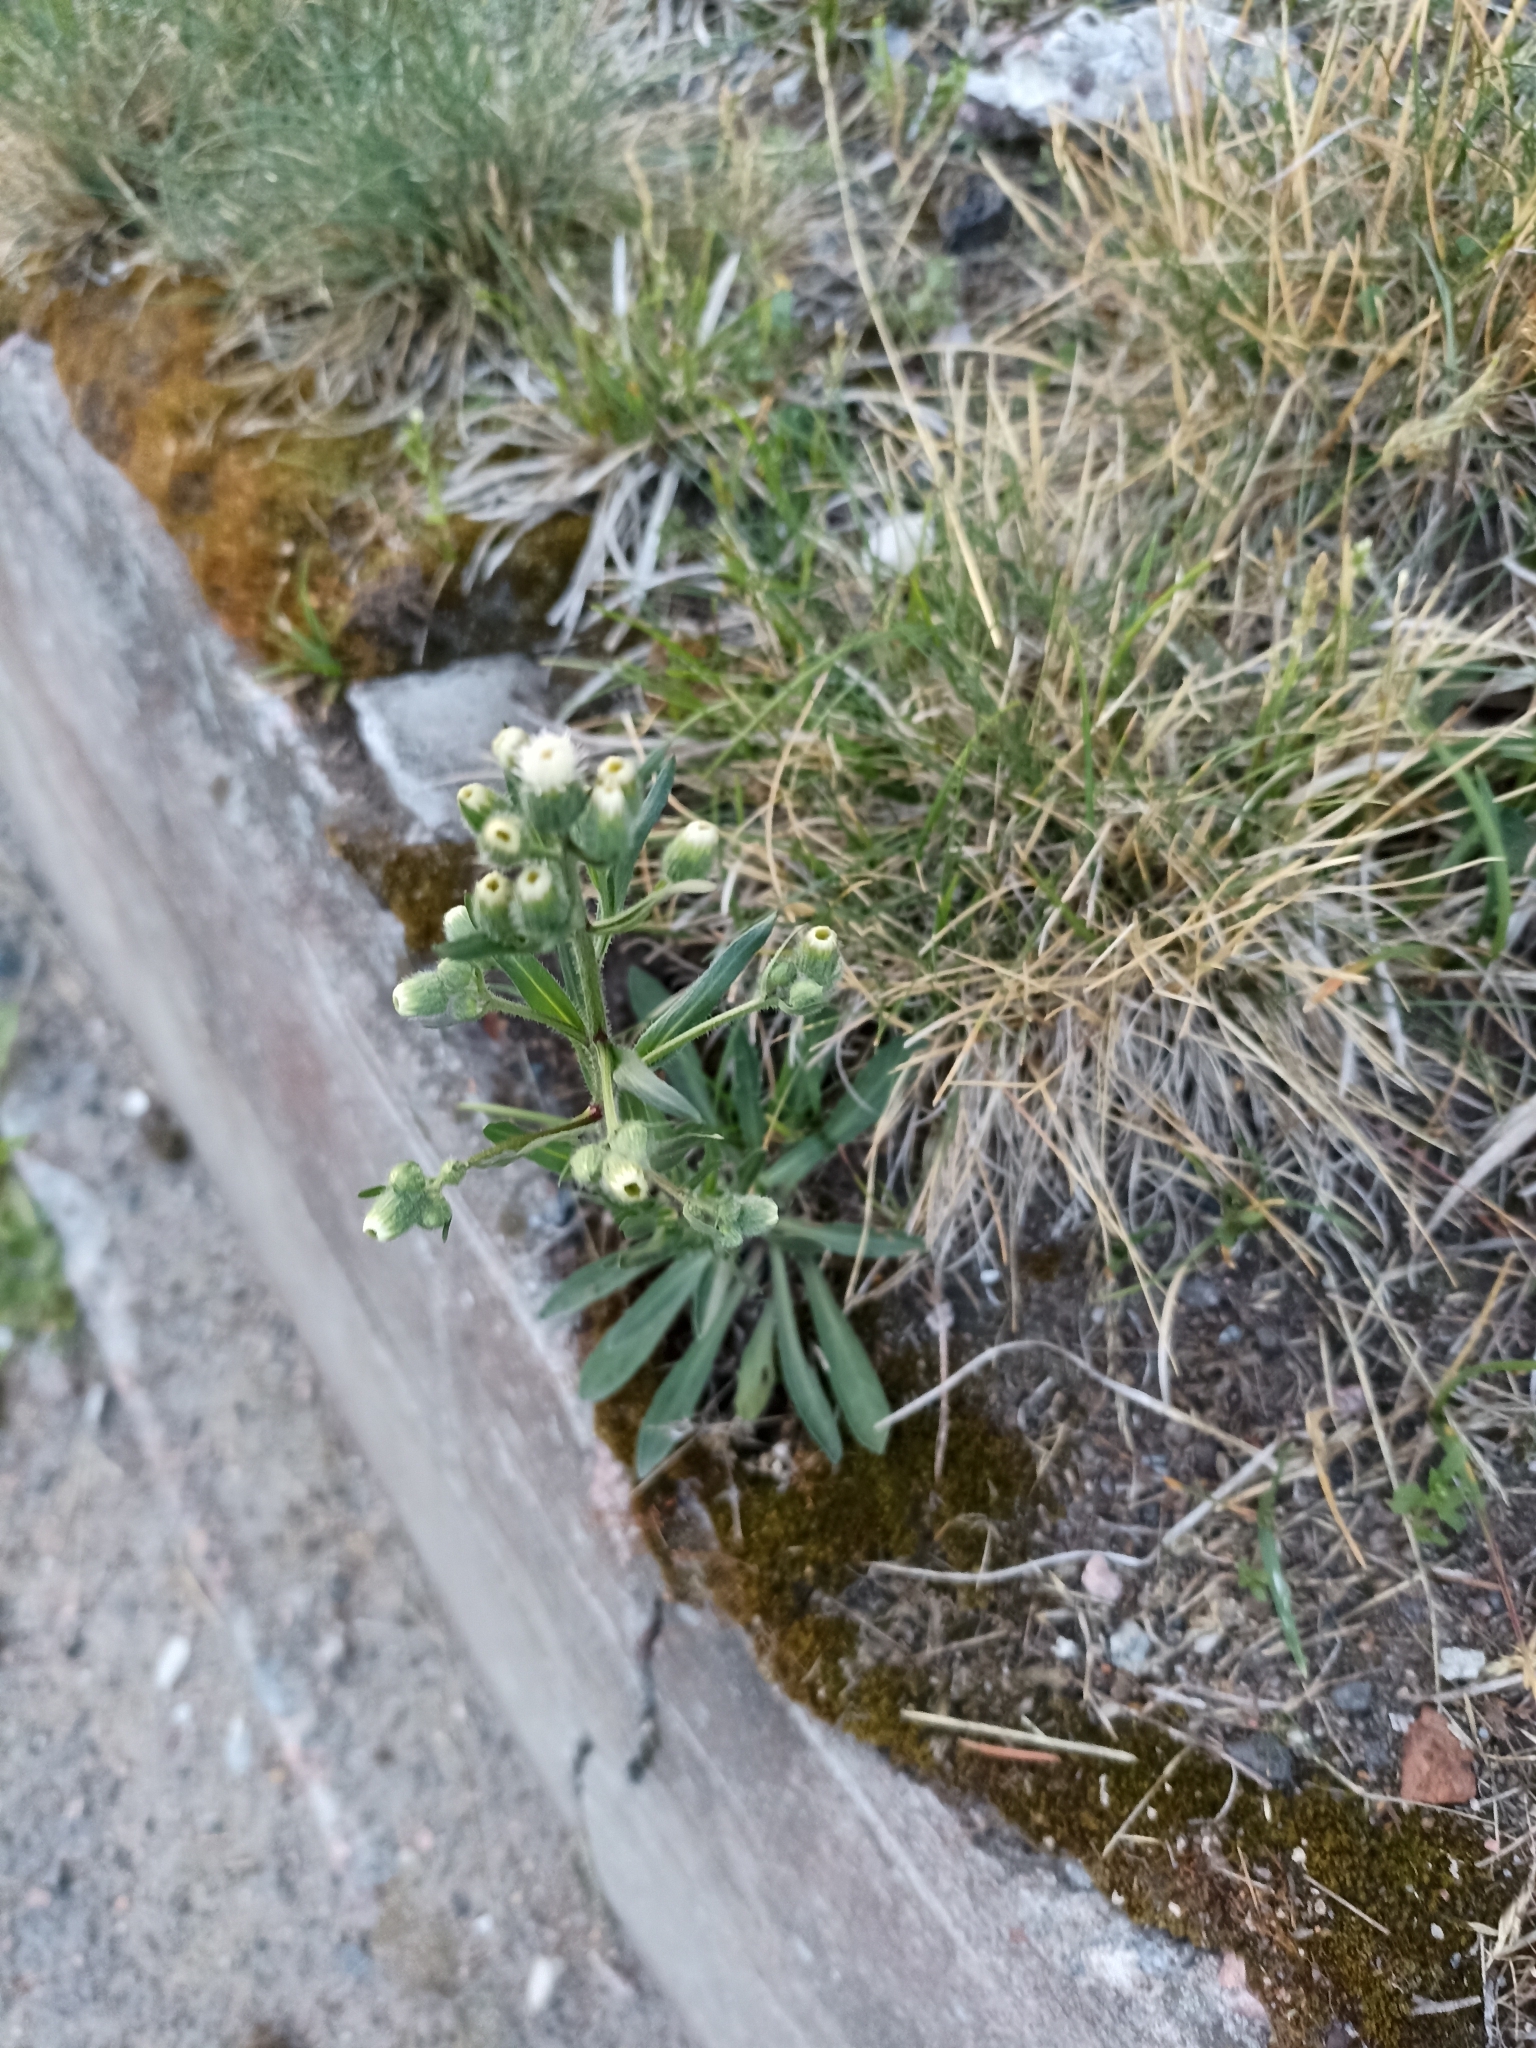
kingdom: Plantae
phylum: Tracheophyta
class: Magnoliopsida
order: Asterales
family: Asteraceae
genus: Erigeron
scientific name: Erigeron acris
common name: Blue fleabane
